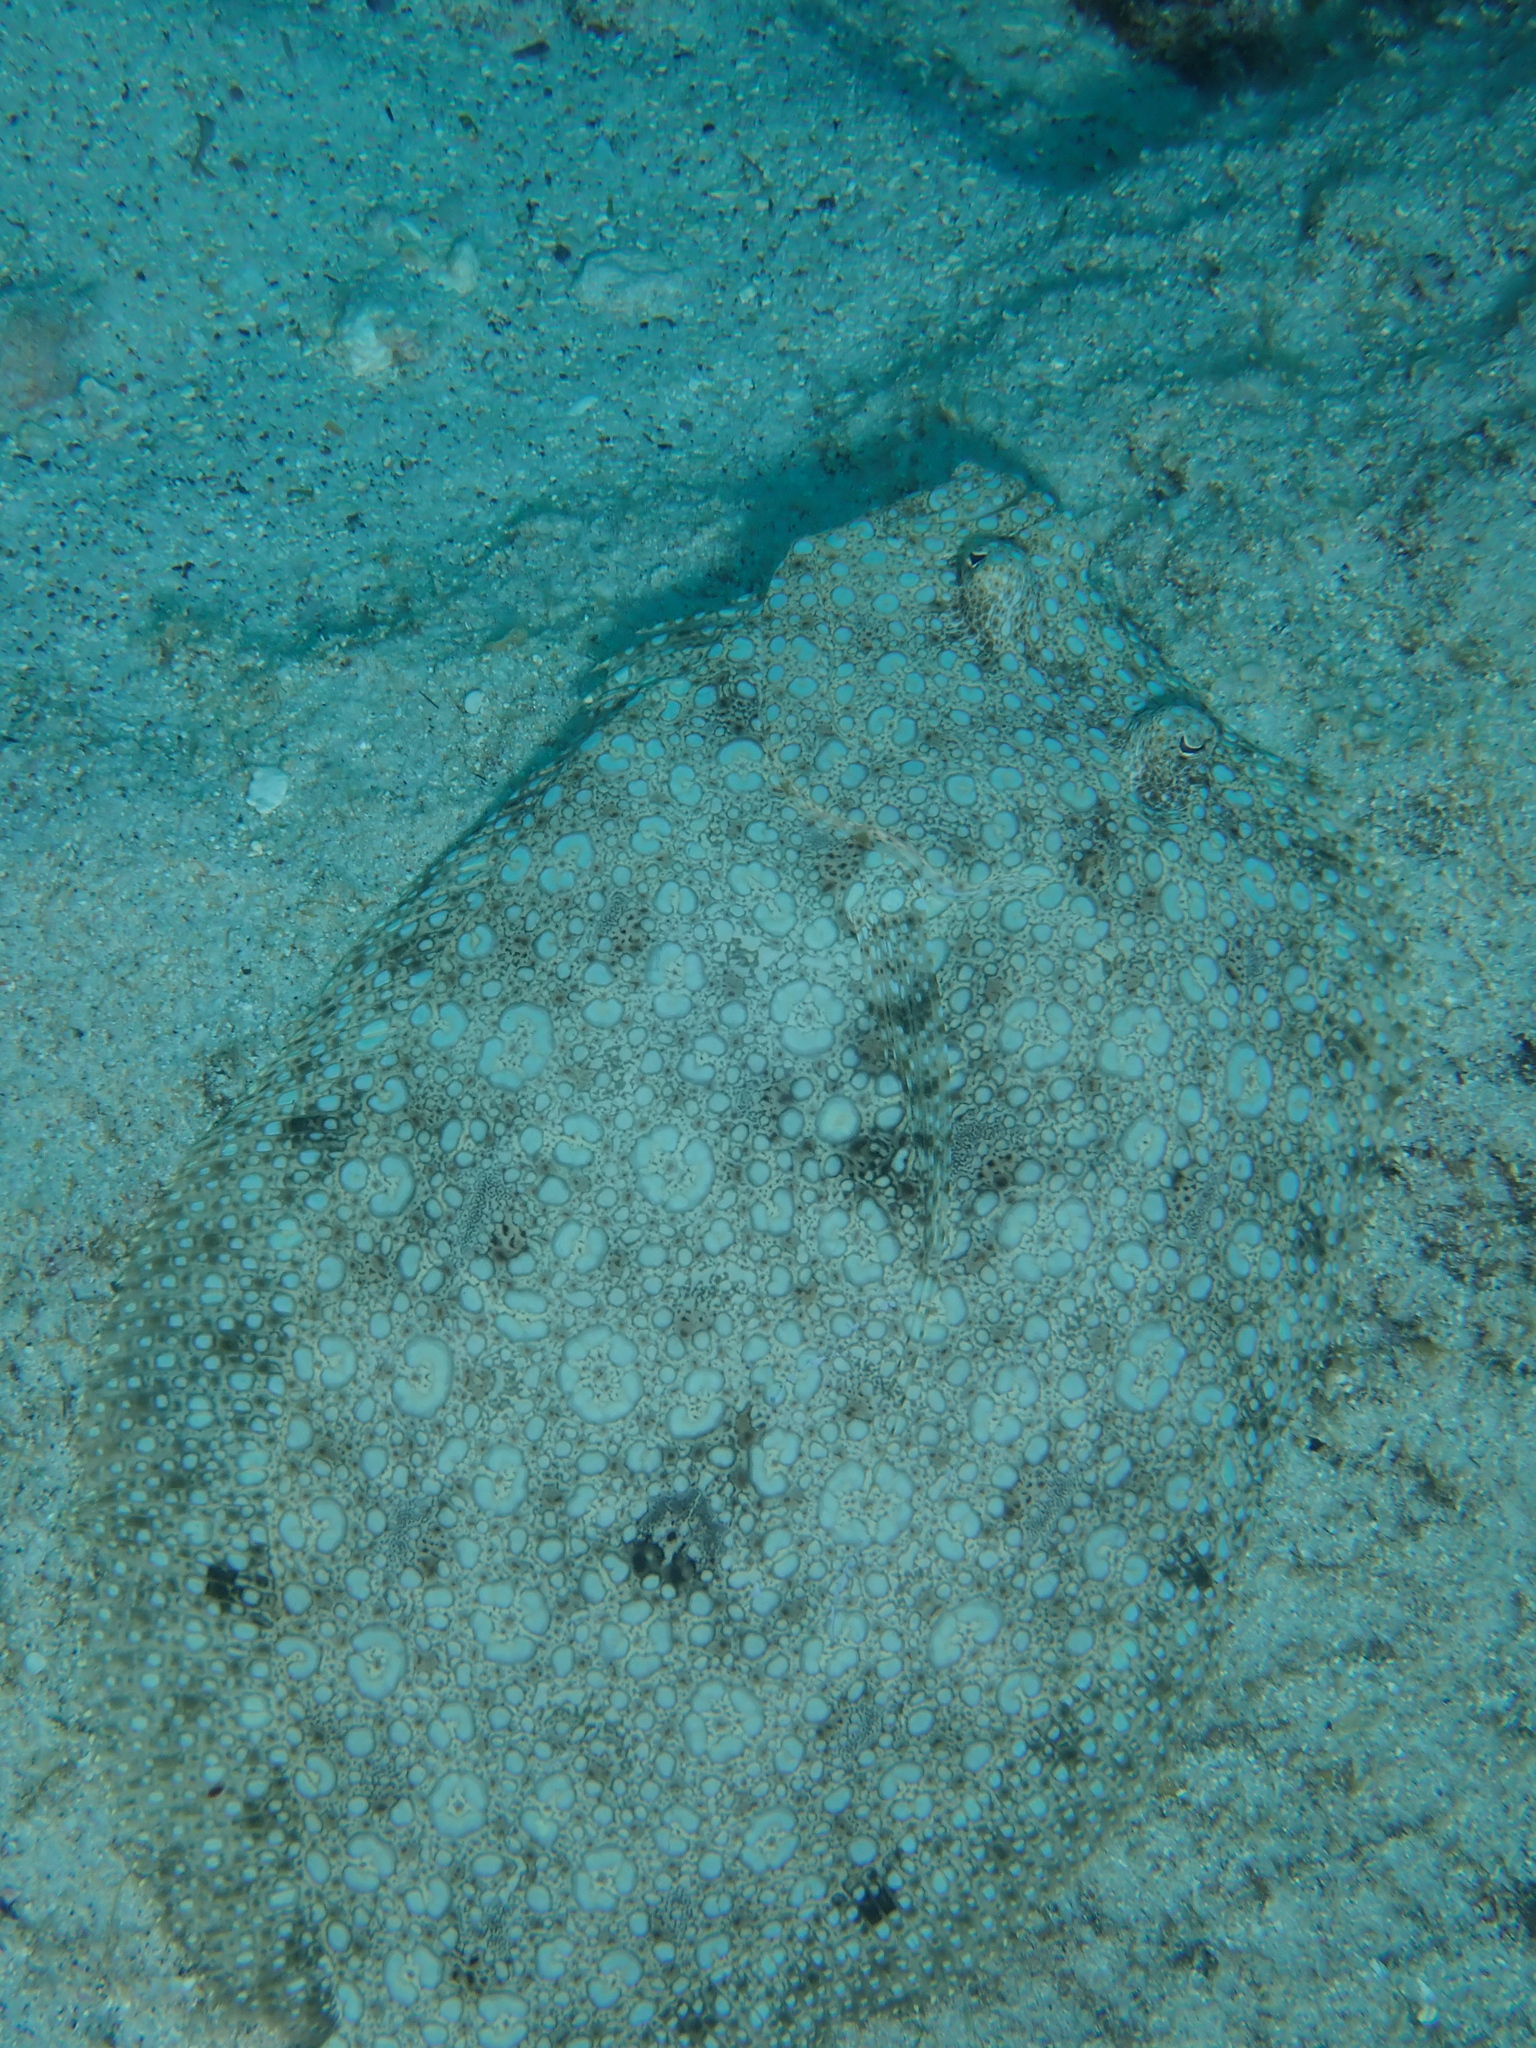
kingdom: Animalia
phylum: Chordata
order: Pleuronectiformes
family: Bothidae
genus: Bothus
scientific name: Bothus mancus
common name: Flowery flounder
